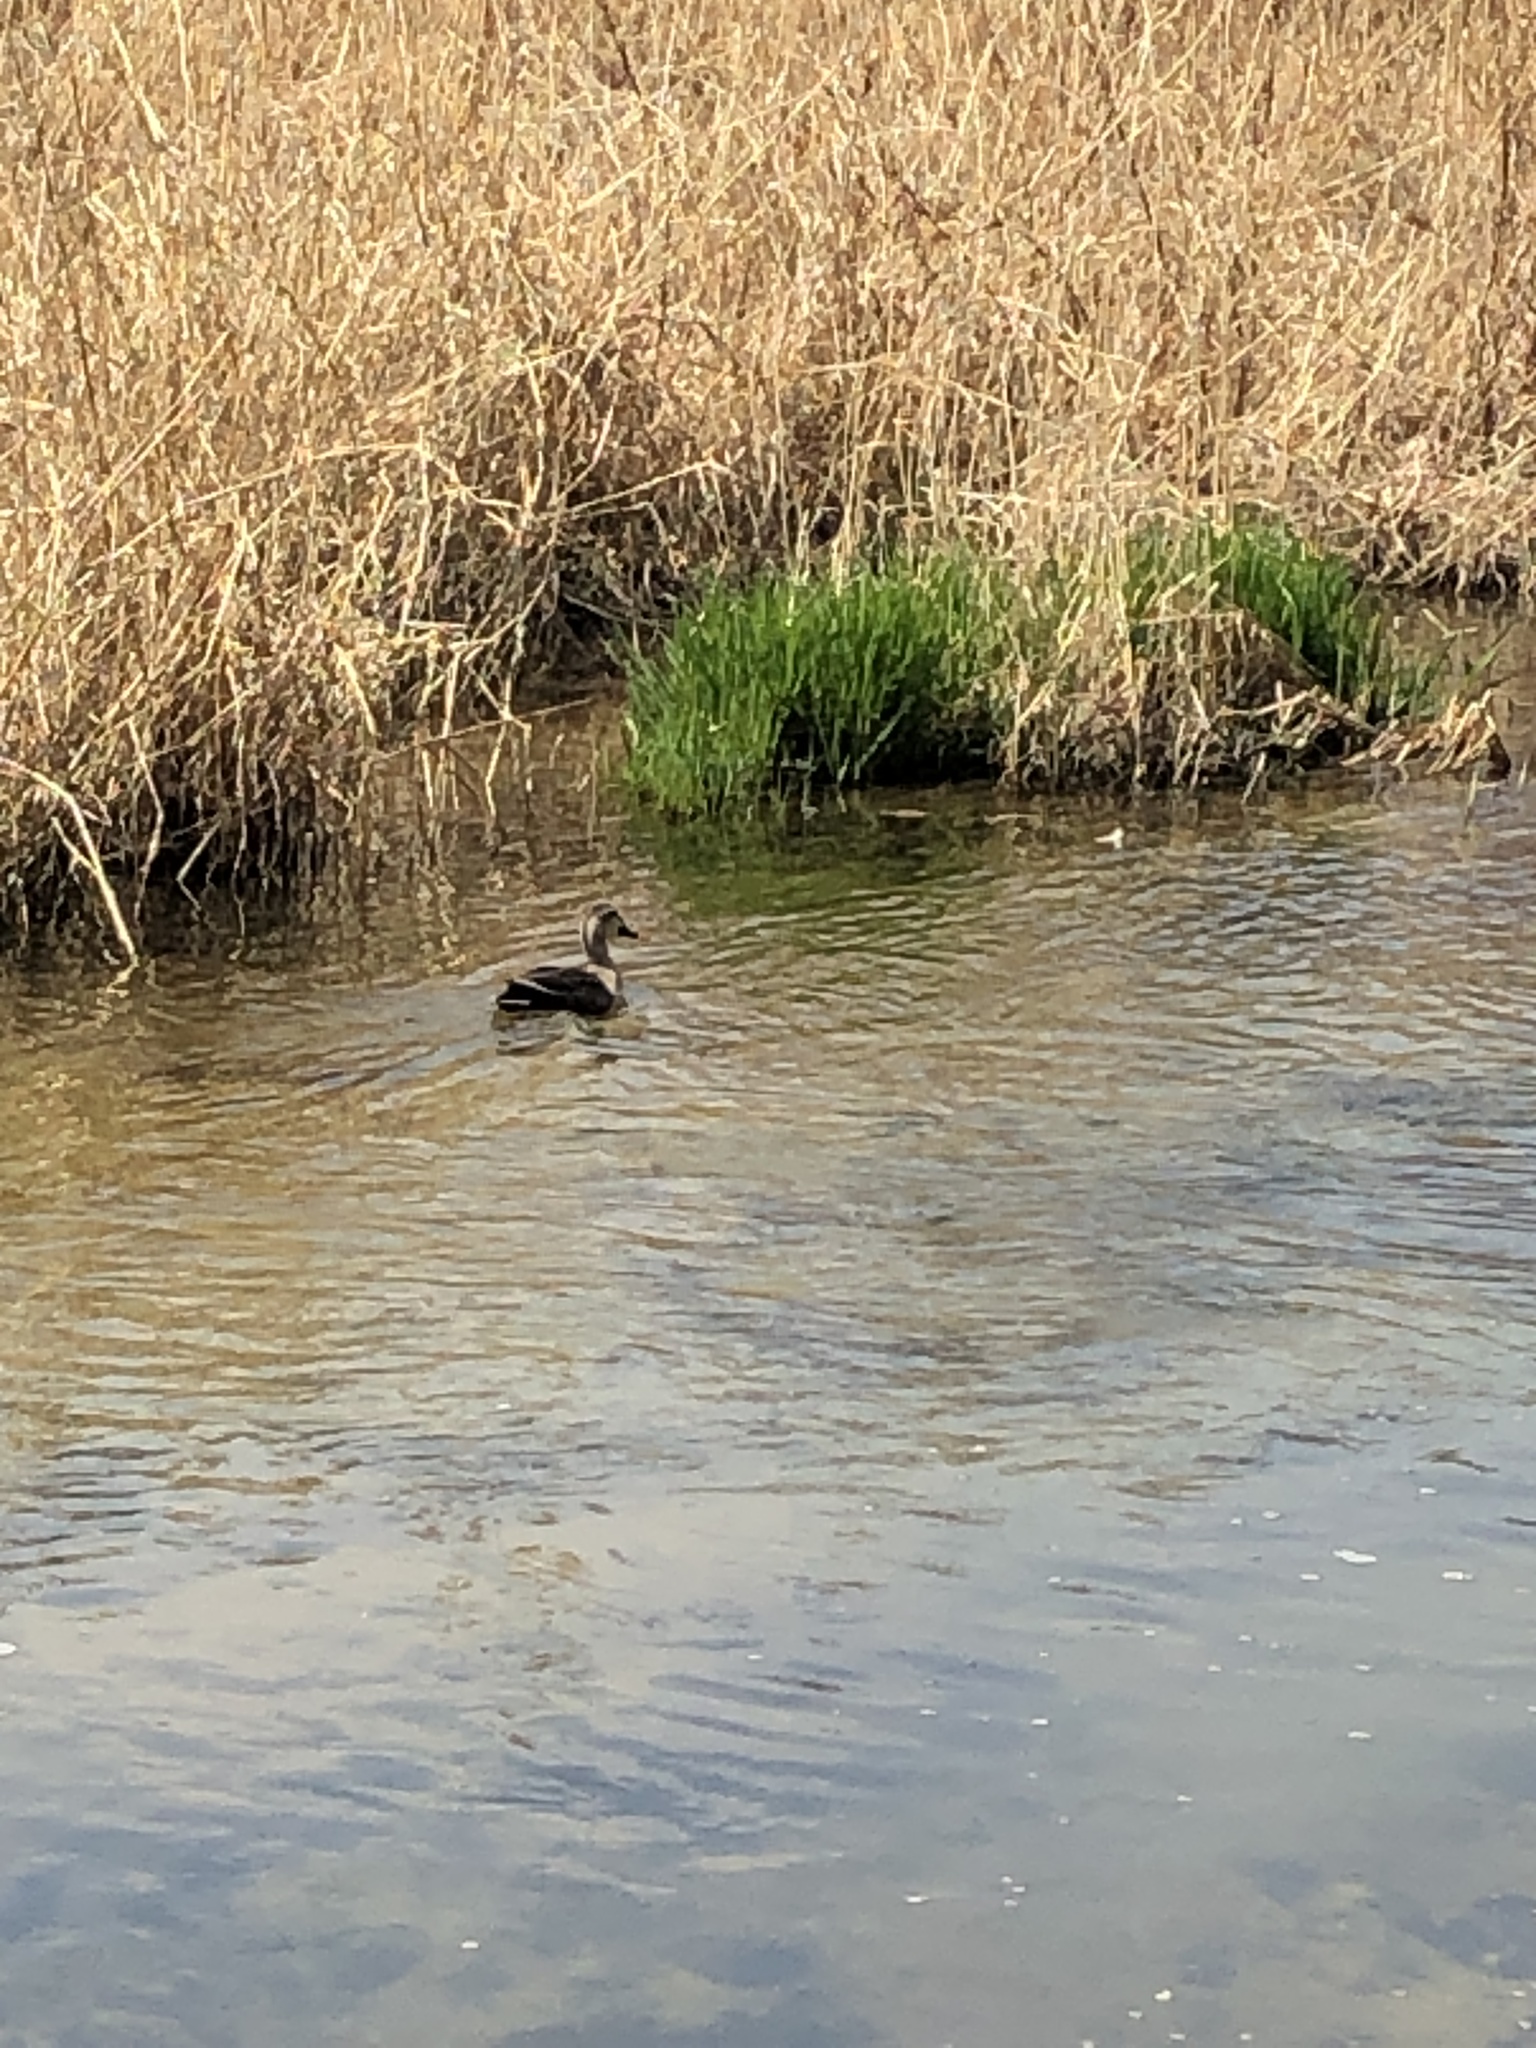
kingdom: Animalia
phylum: Chordata
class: Aves
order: Anseriformes
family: Anatidae
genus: Anas
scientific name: Anas zonorhyncha
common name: Eastern spot-billed duck
